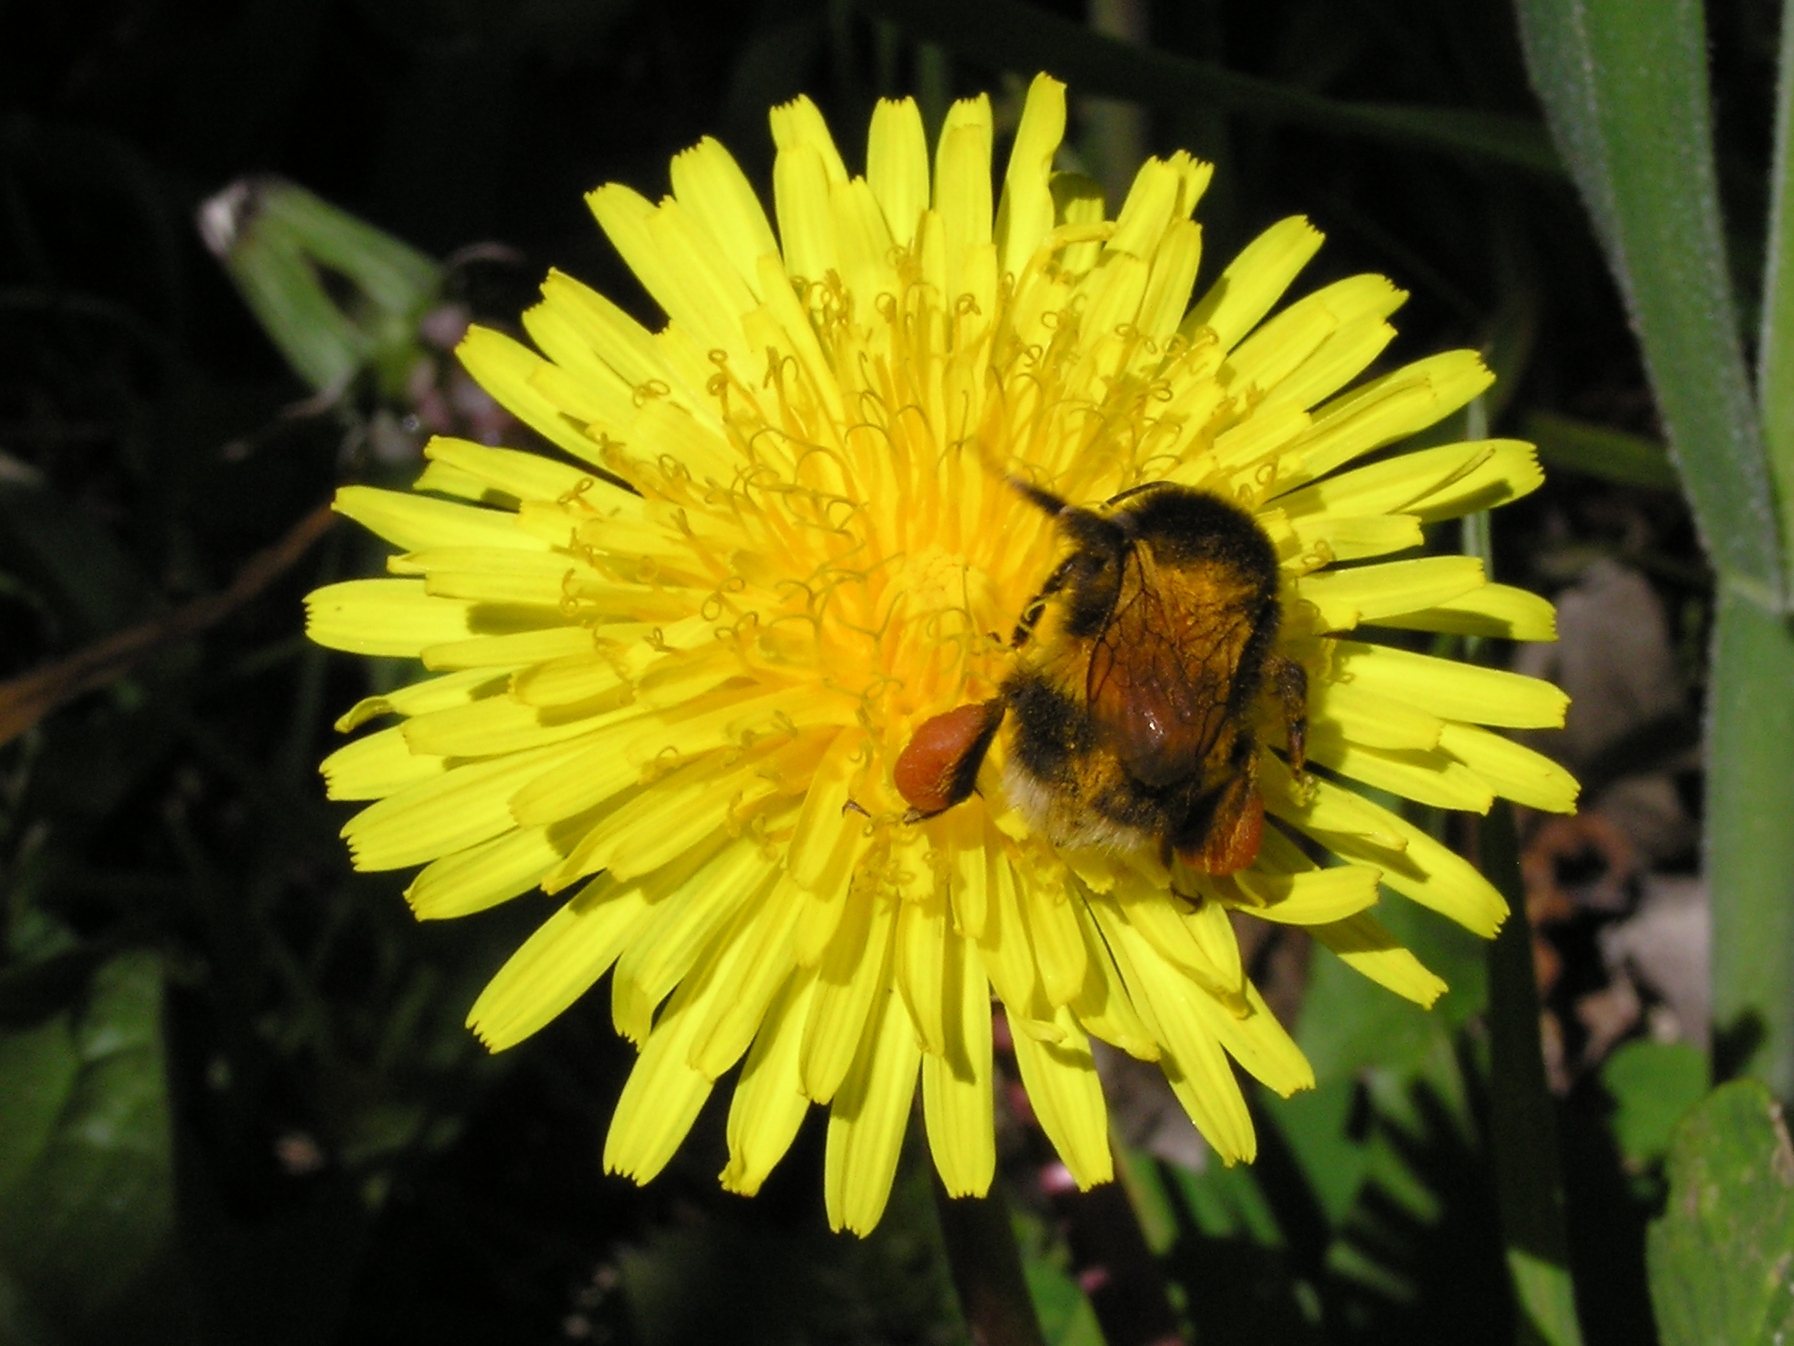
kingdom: Animalia
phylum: Arthropoda
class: Insecta
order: Hymenoptera
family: Apidae
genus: Bombus
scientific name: Bombus terrestris
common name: Buff-tailed bumblebee
